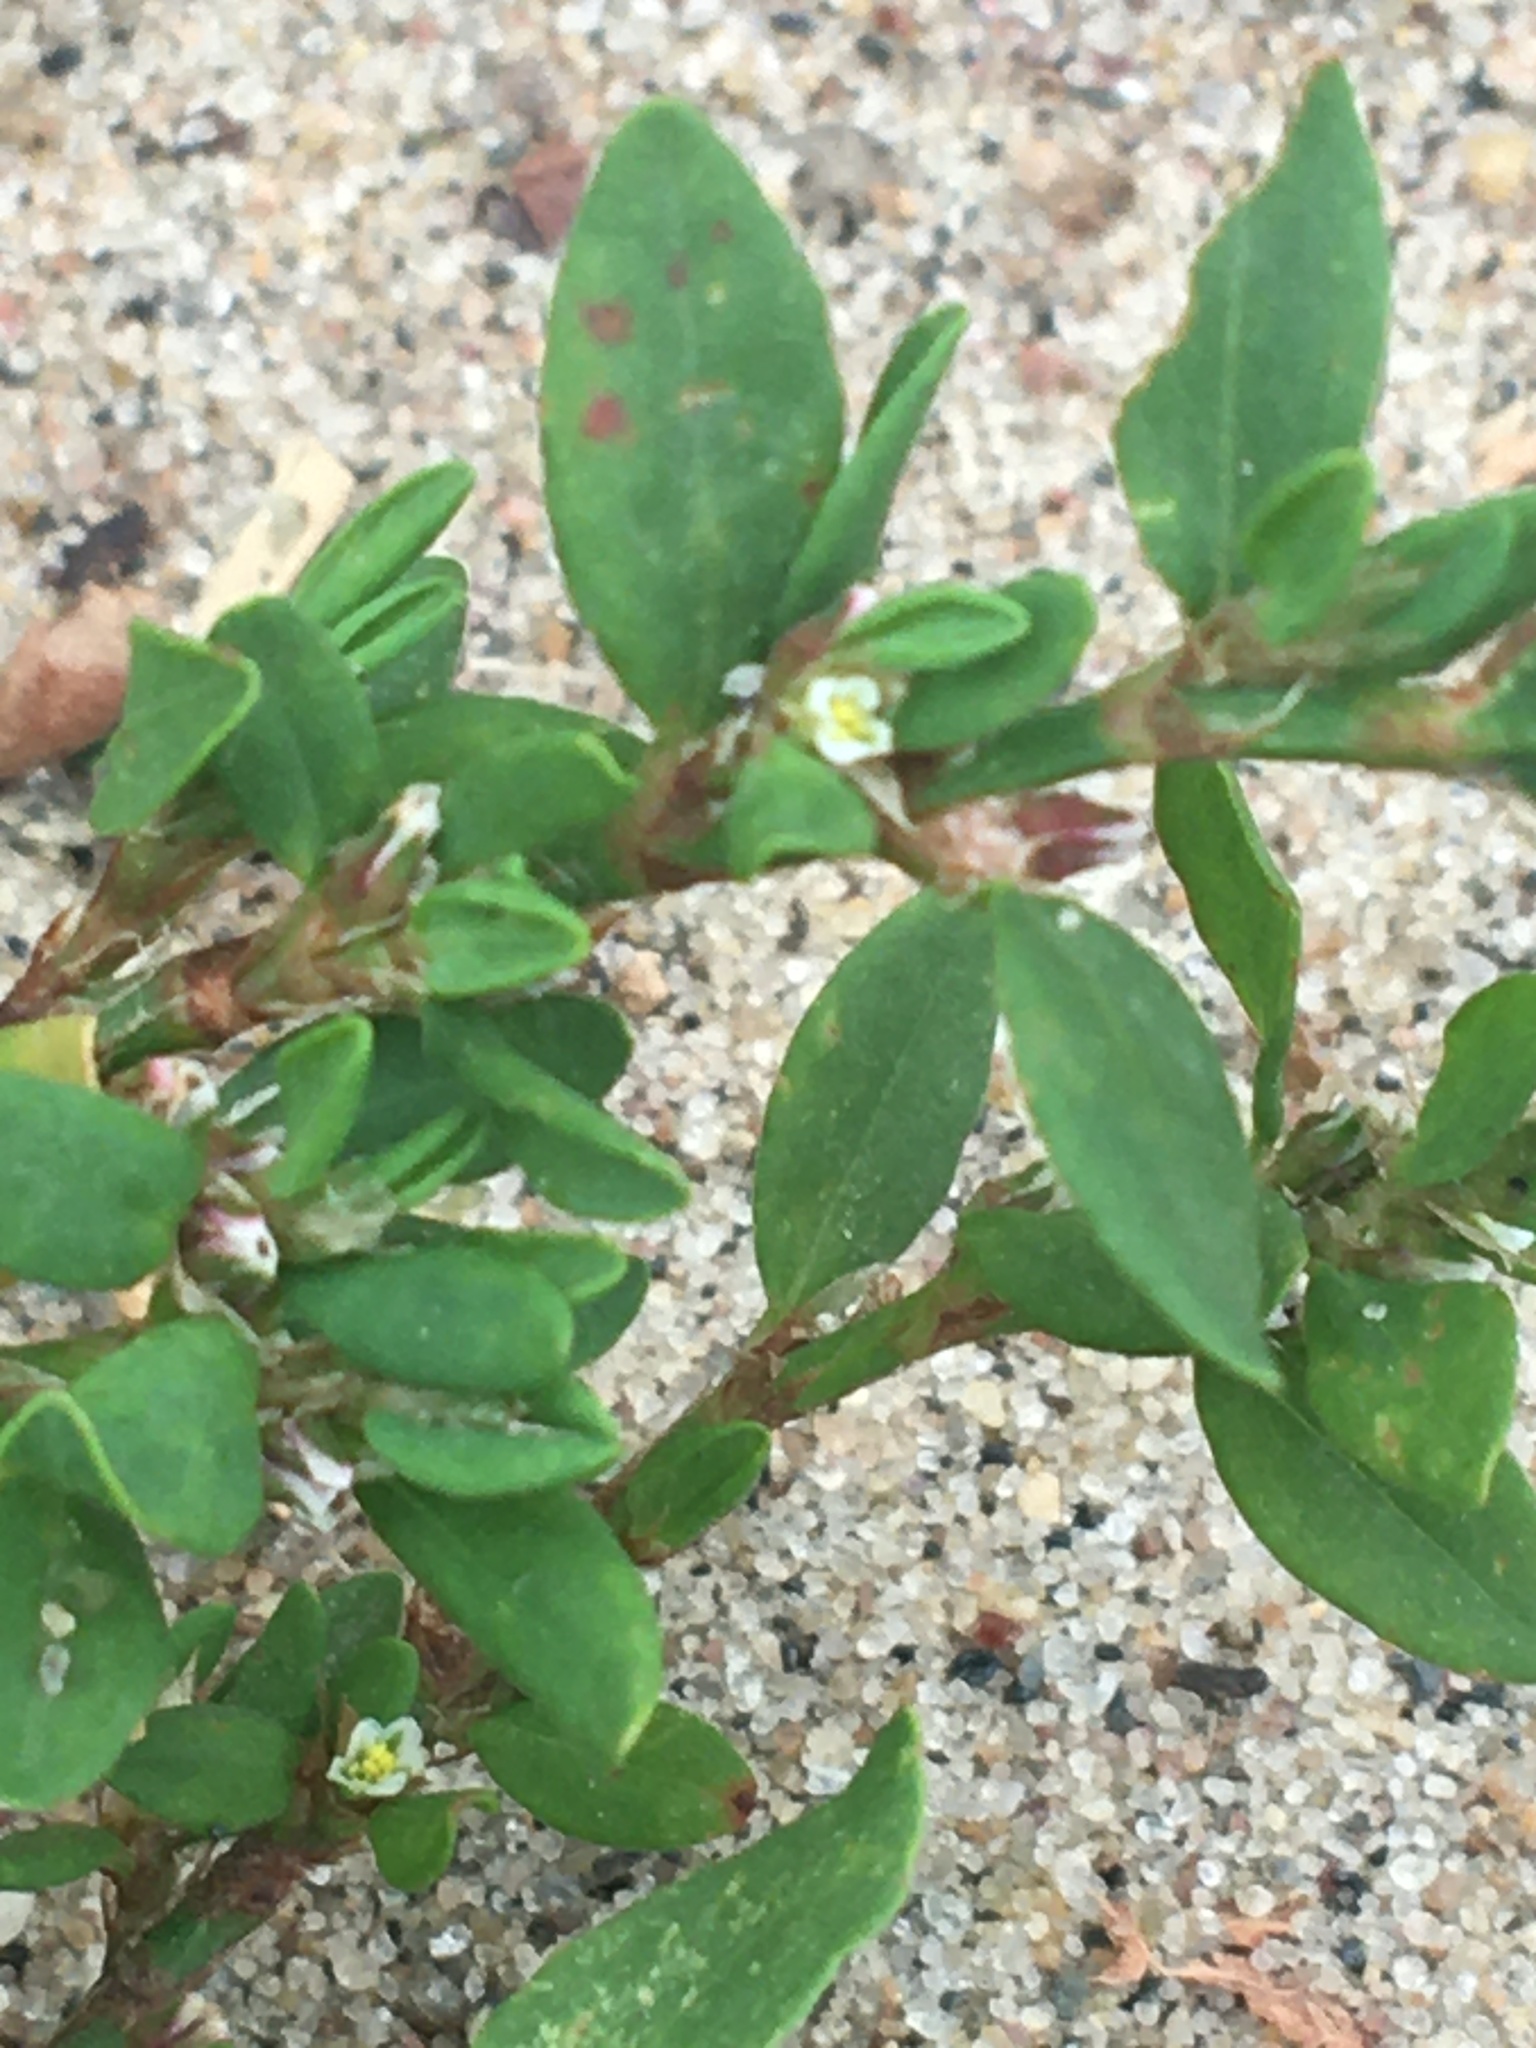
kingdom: Plantae
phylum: Tracheophyta
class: Magnoliopsida
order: Caryophyllales
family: Polygonaceae
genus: Polygonum
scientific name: Polygonum aviculare
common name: Prostrate knotweed
